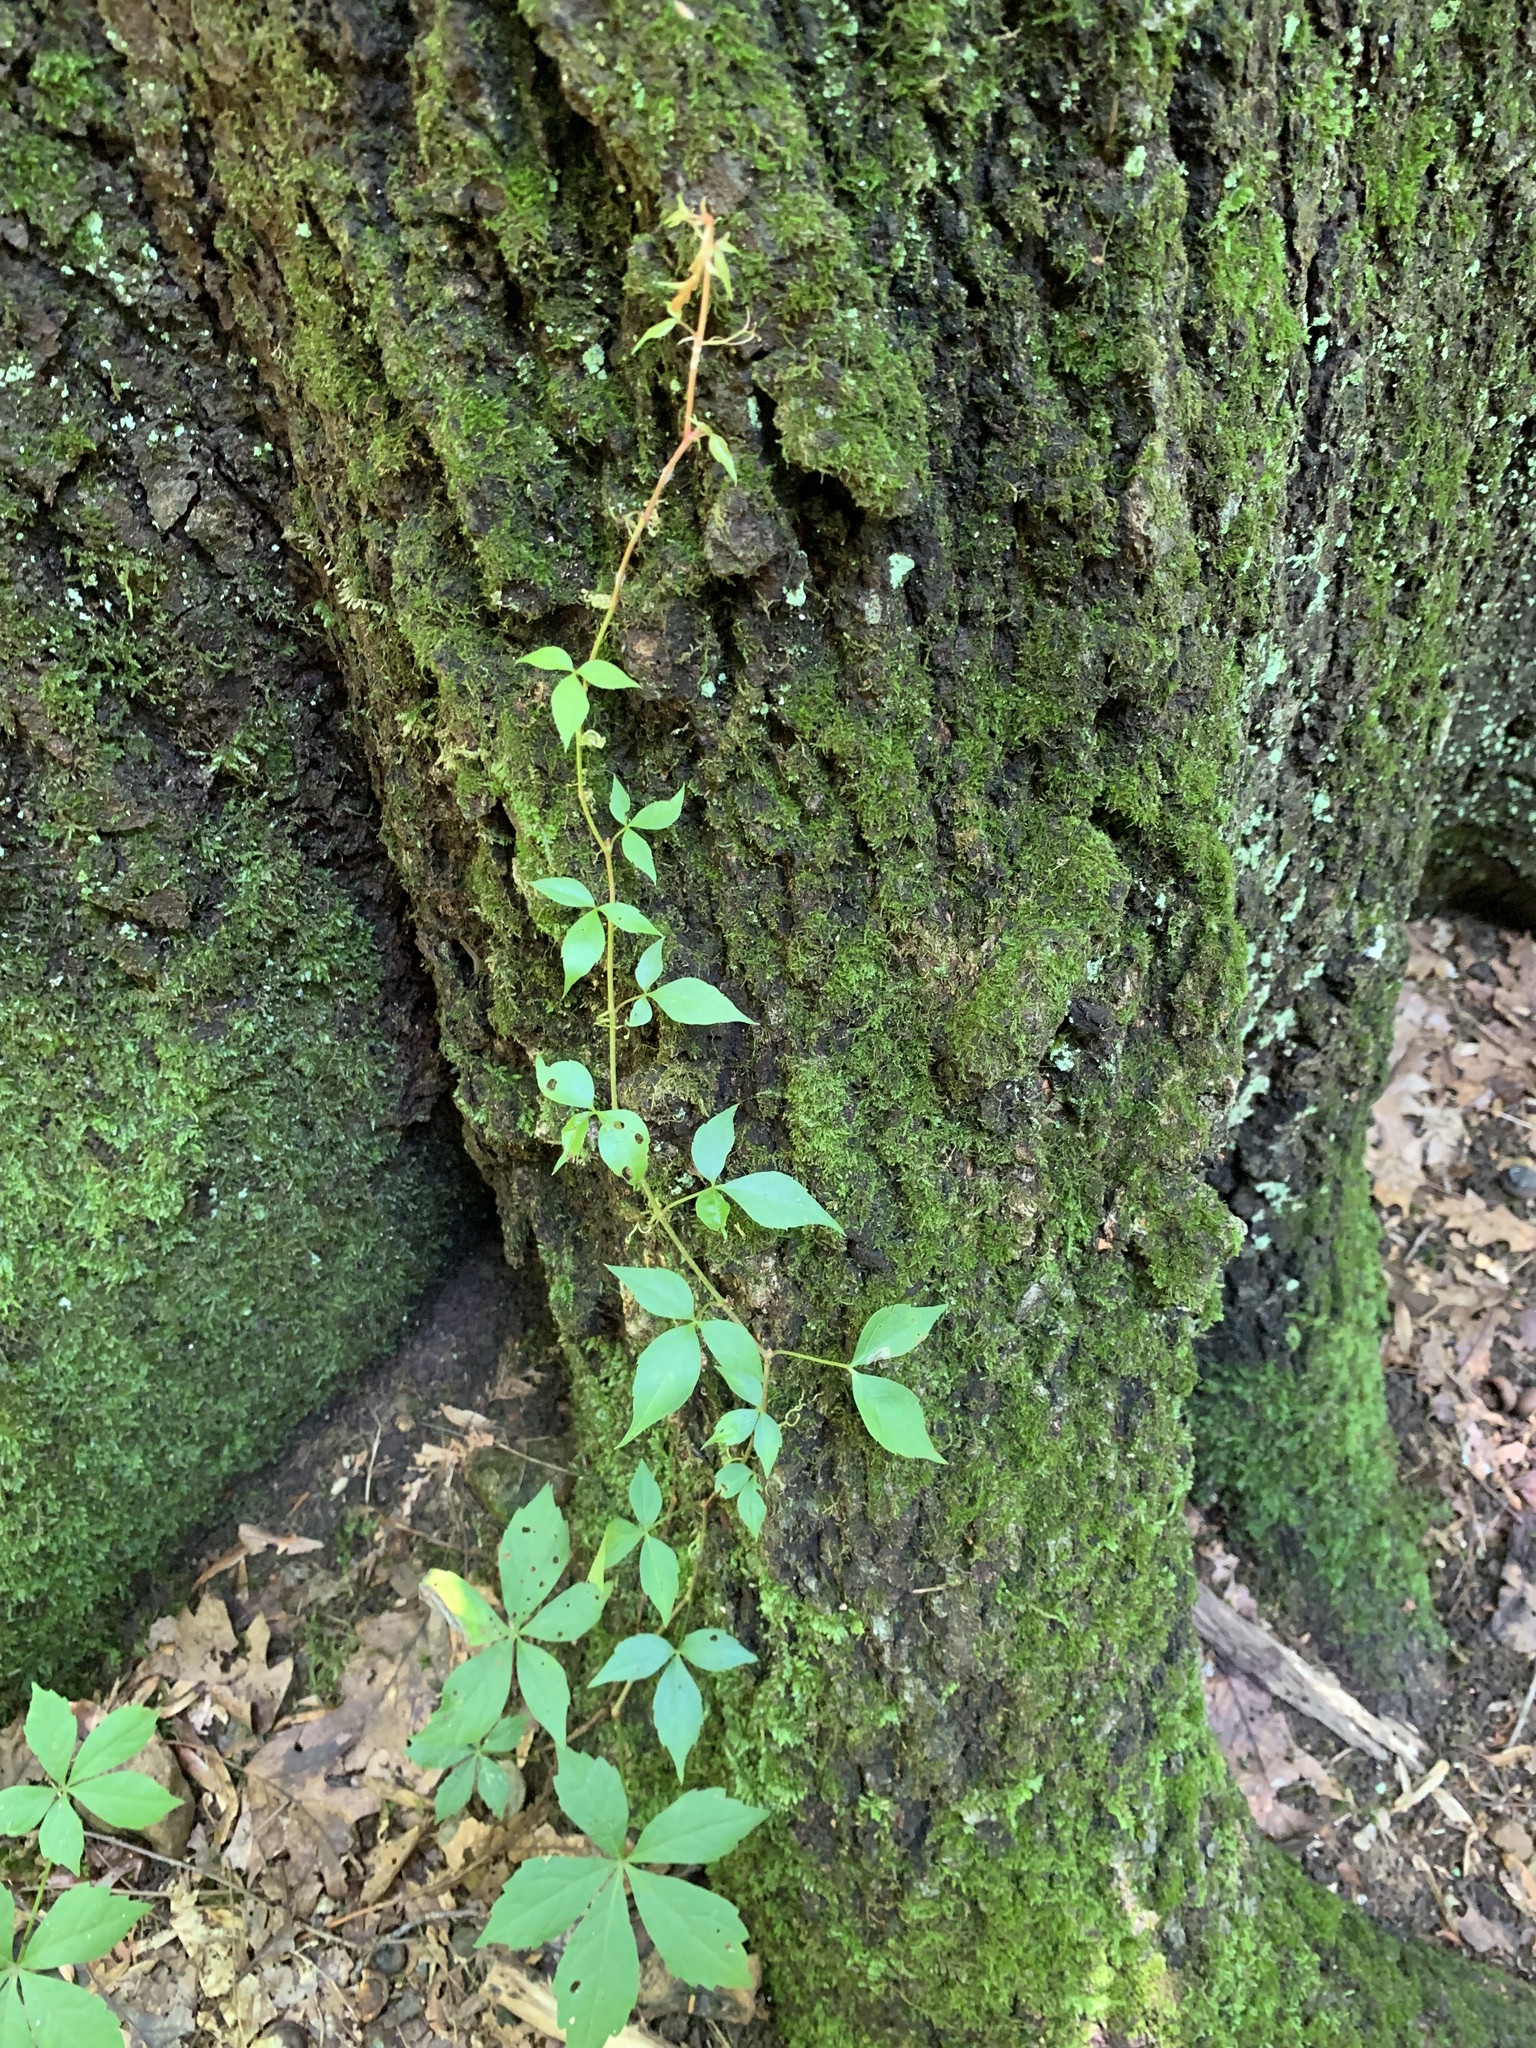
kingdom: Plantae
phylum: Tracheophyta
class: Magnoliopsida
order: Vitales
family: Vitaceae
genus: Parthenocissus
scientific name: Parthenocissus quinquefolia
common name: Virginia-creeper
